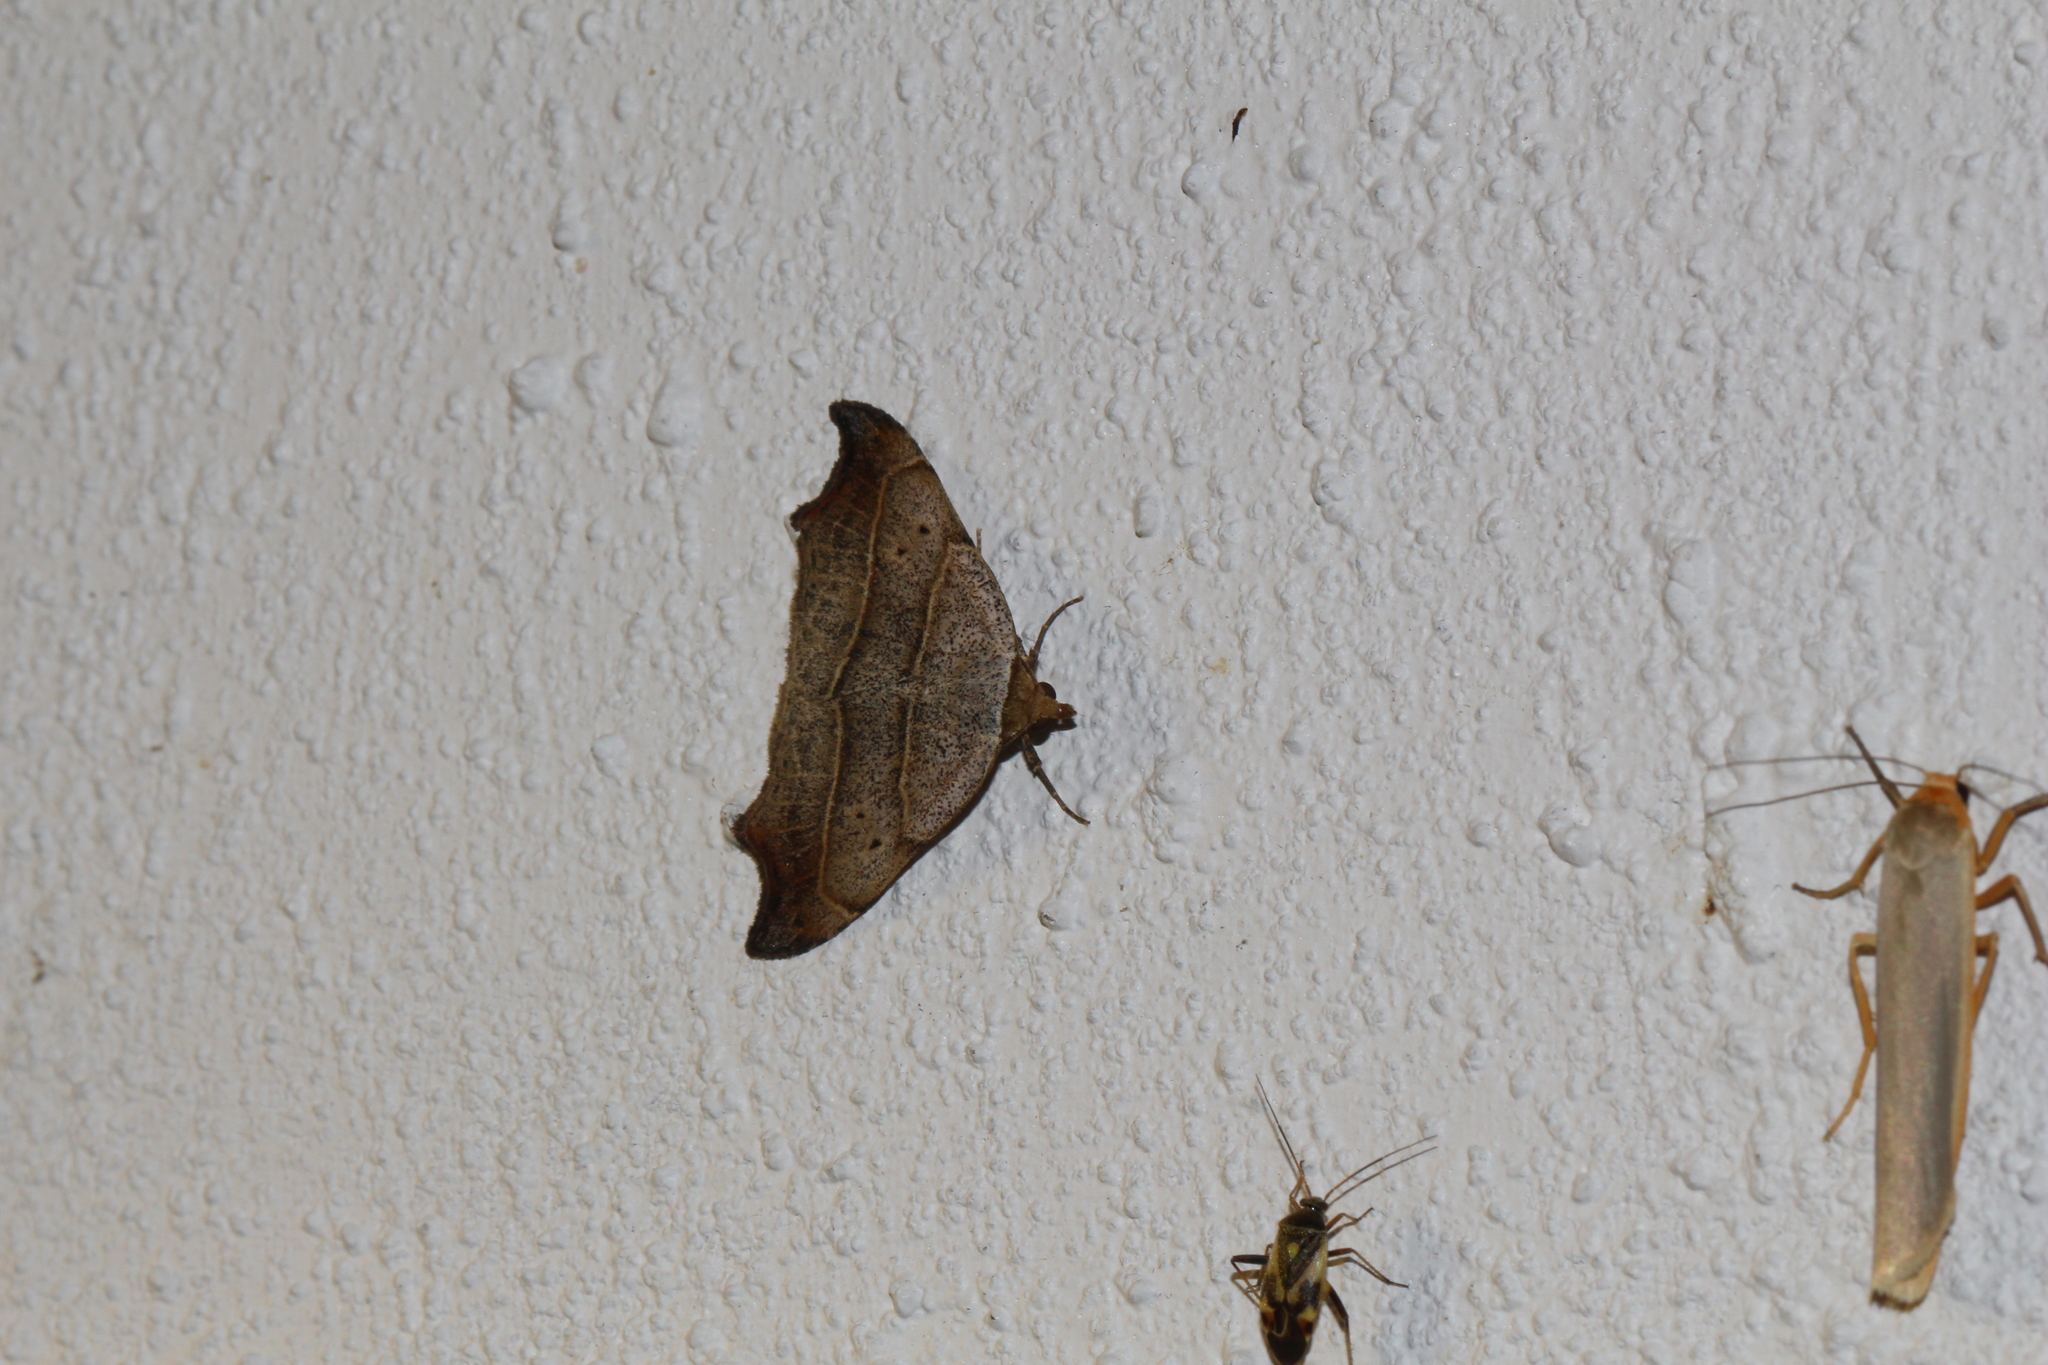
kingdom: Animalia
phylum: Arthropoda
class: Insecta
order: Lepidoptera
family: Erebidae
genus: Laspeyria
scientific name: Laspeyria flexula
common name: Beautiful hook-tip
